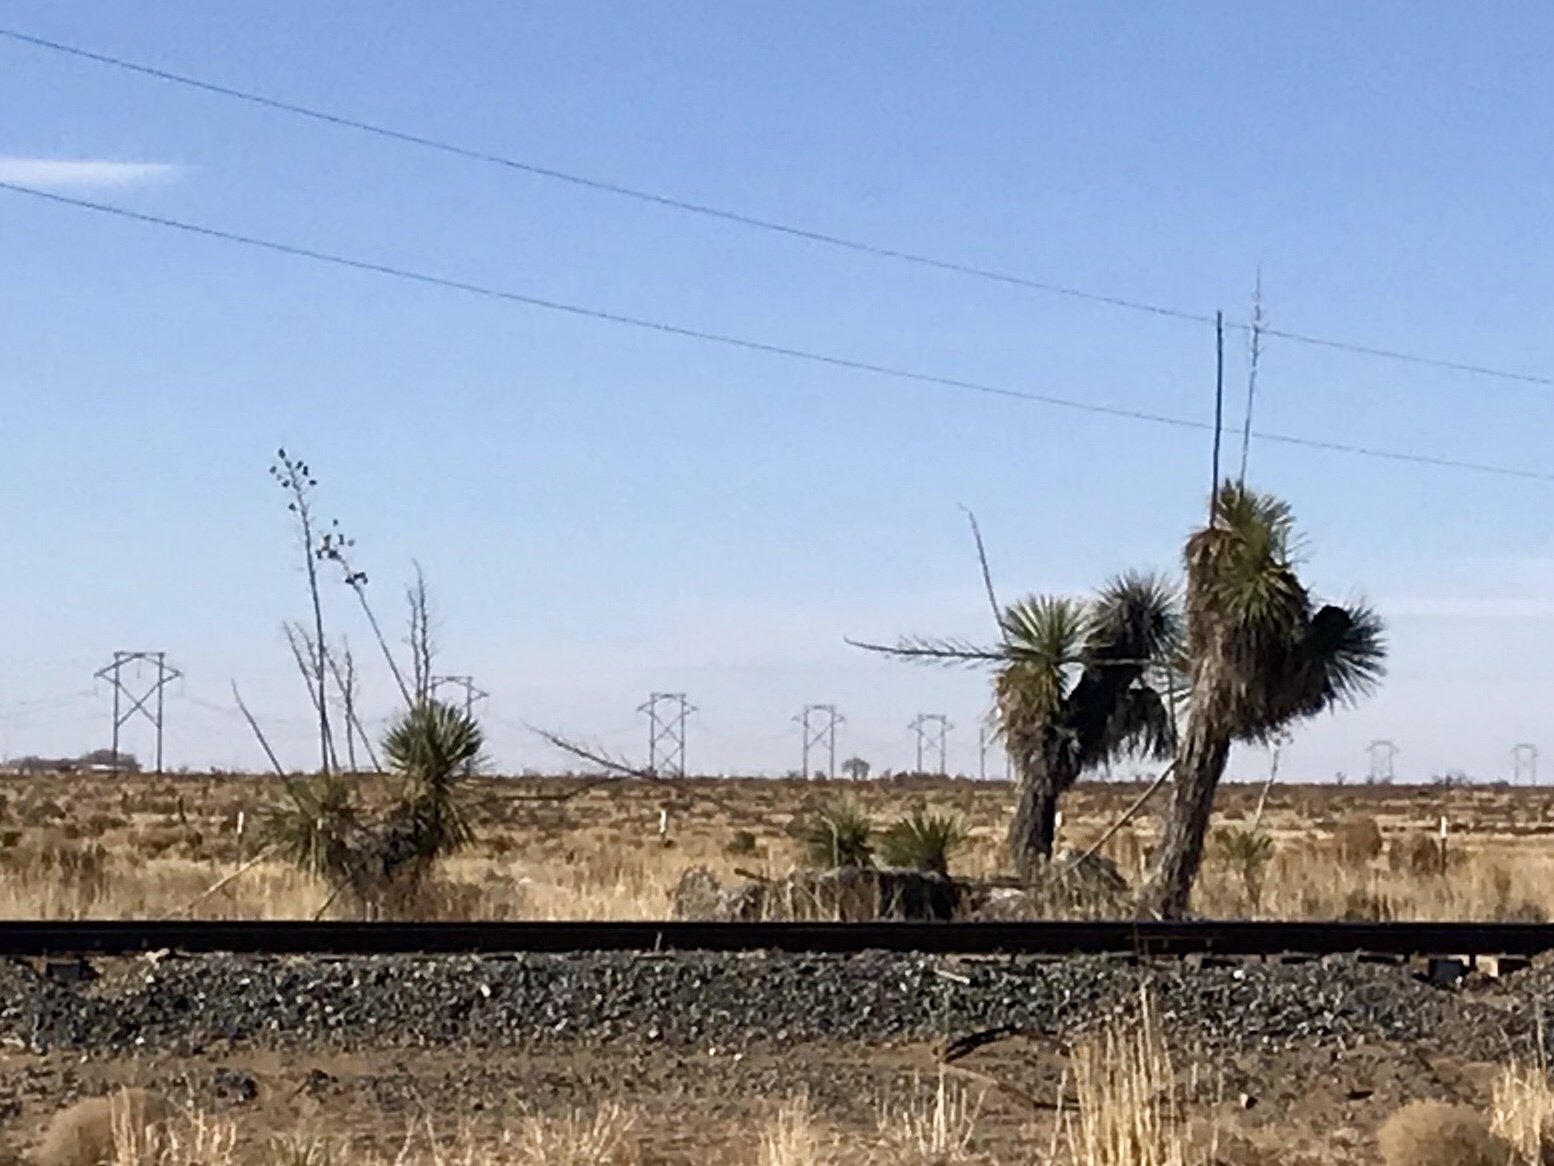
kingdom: Plantae
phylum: Tracheophyta
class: Liliopsida
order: Asparagales
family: Asparagaceae
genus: Yucca
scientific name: Yucca elata
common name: Palmella
